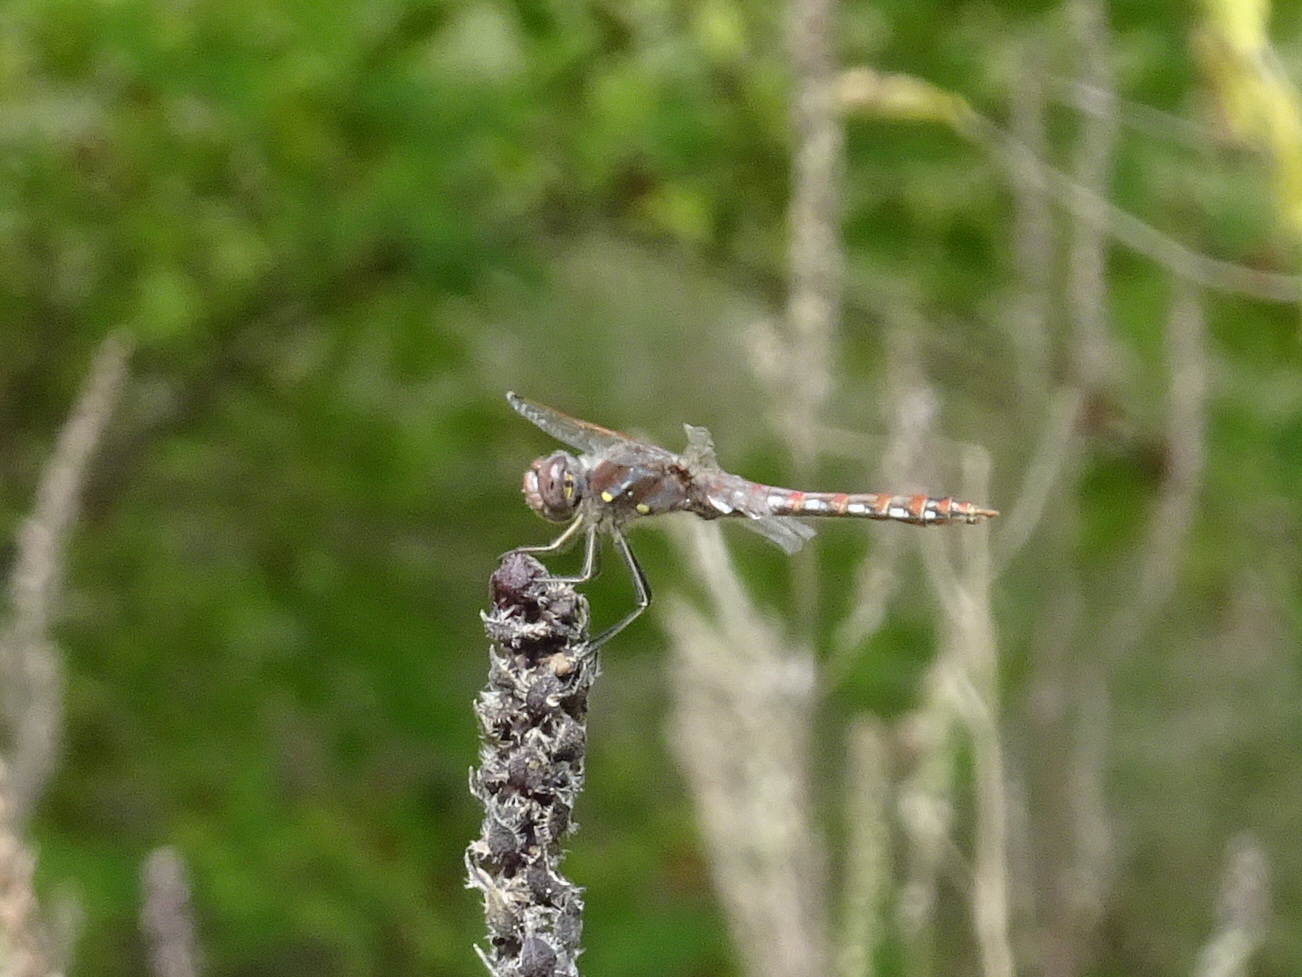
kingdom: Animalia
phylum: Arthropoda
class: Insecta
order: Odonata
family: Libellulidae
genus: Sympetrum
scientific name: Sympetrum corruptum
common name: Variegated meadowhawk
